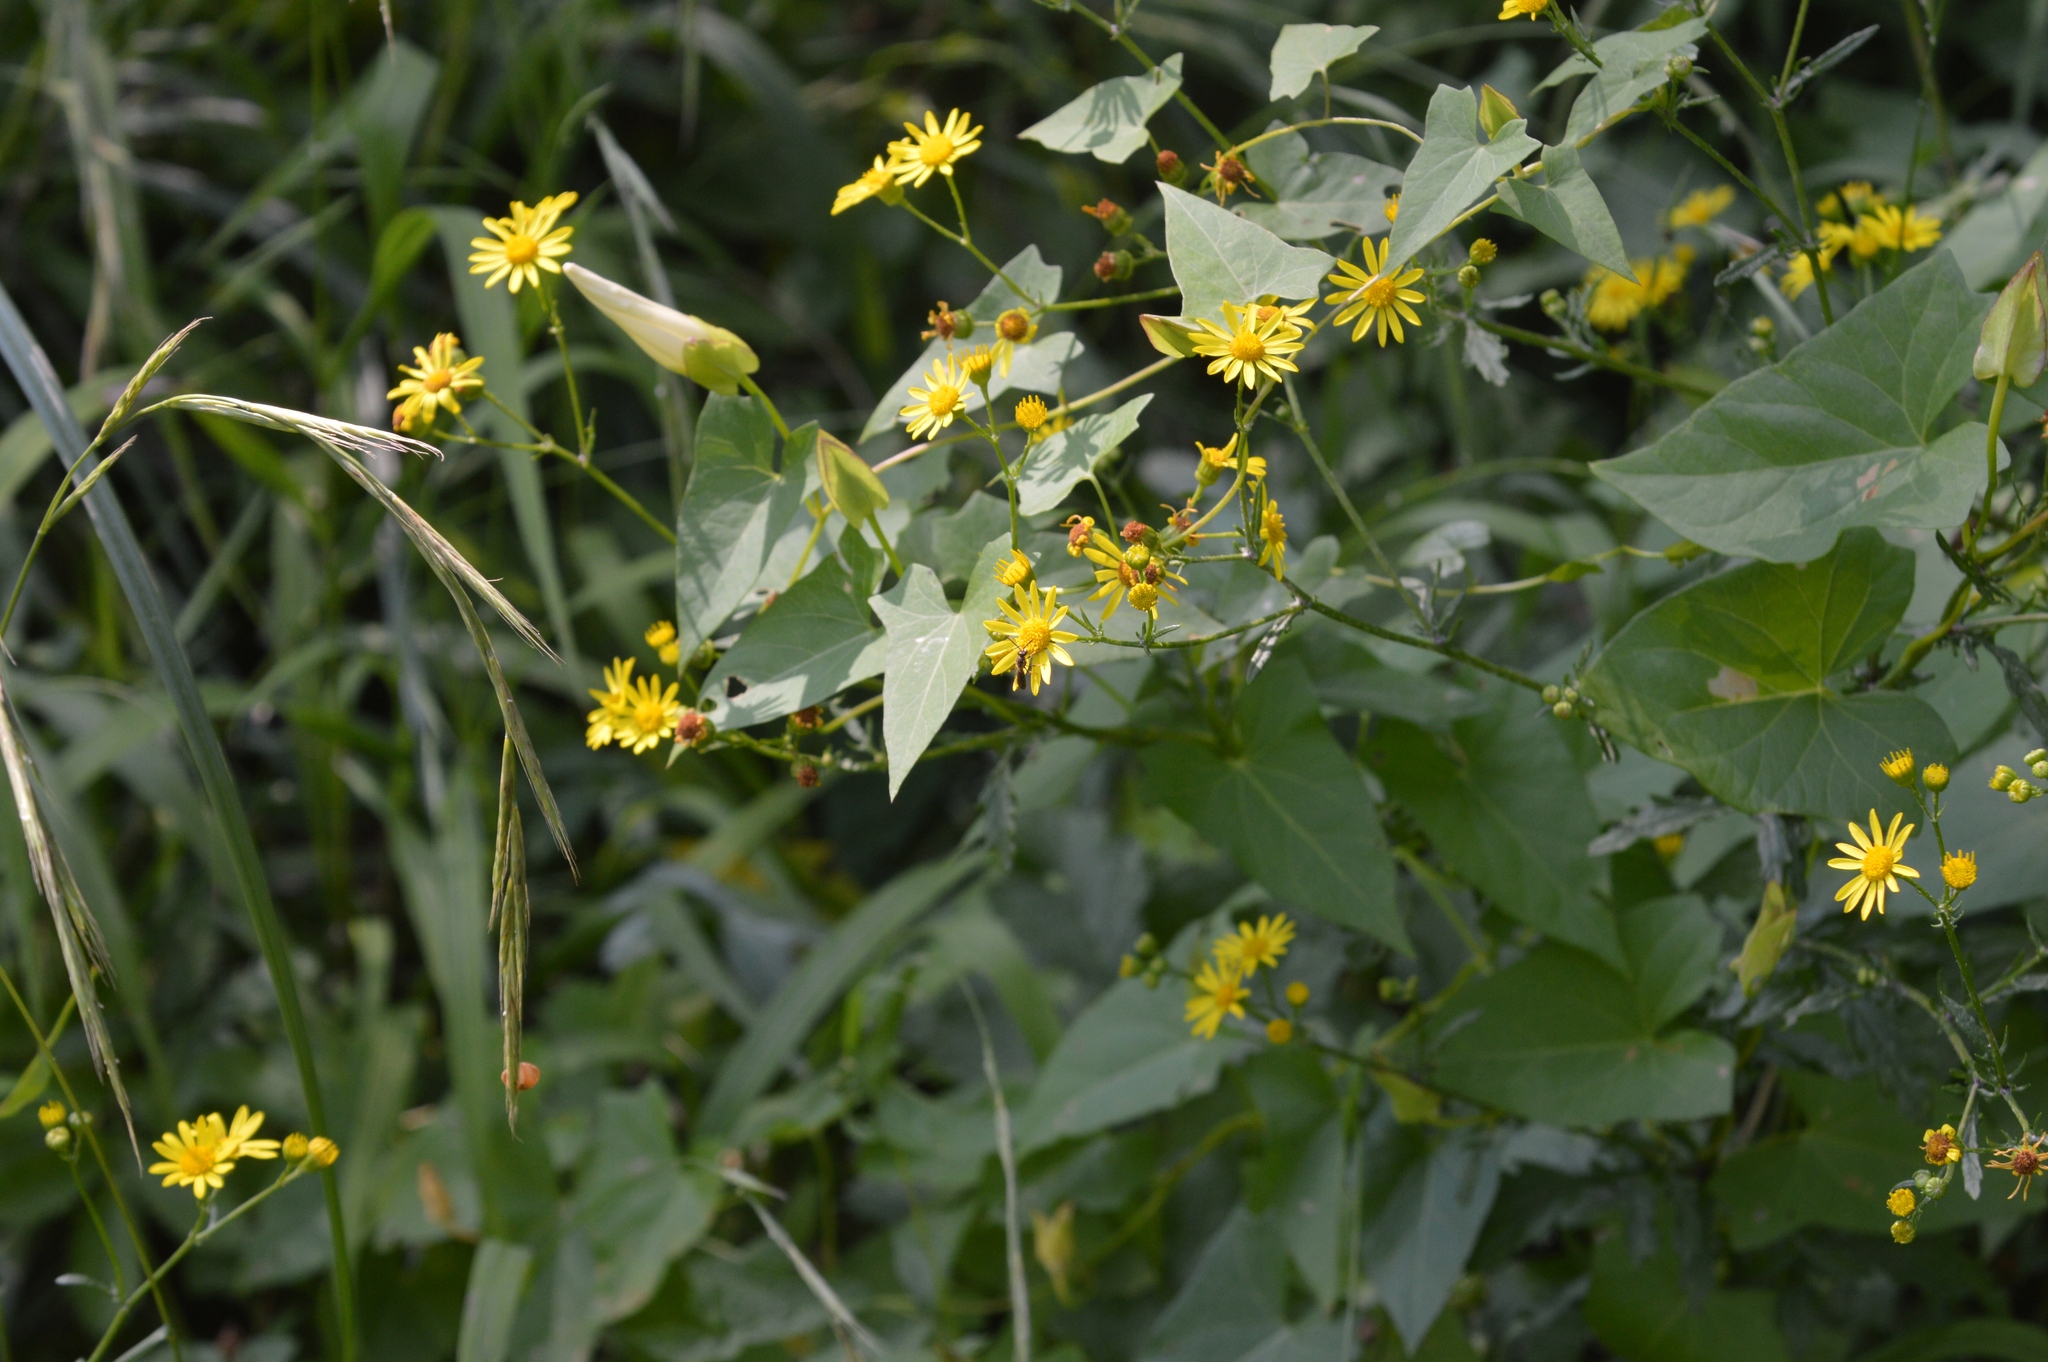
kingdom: Plantae
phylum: Tracheophyta
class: Magnoliopsida
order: Solanales
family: Convolvulaceae
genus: Calystegia
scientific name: Calystegia sepium
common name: Hedge bindweed
